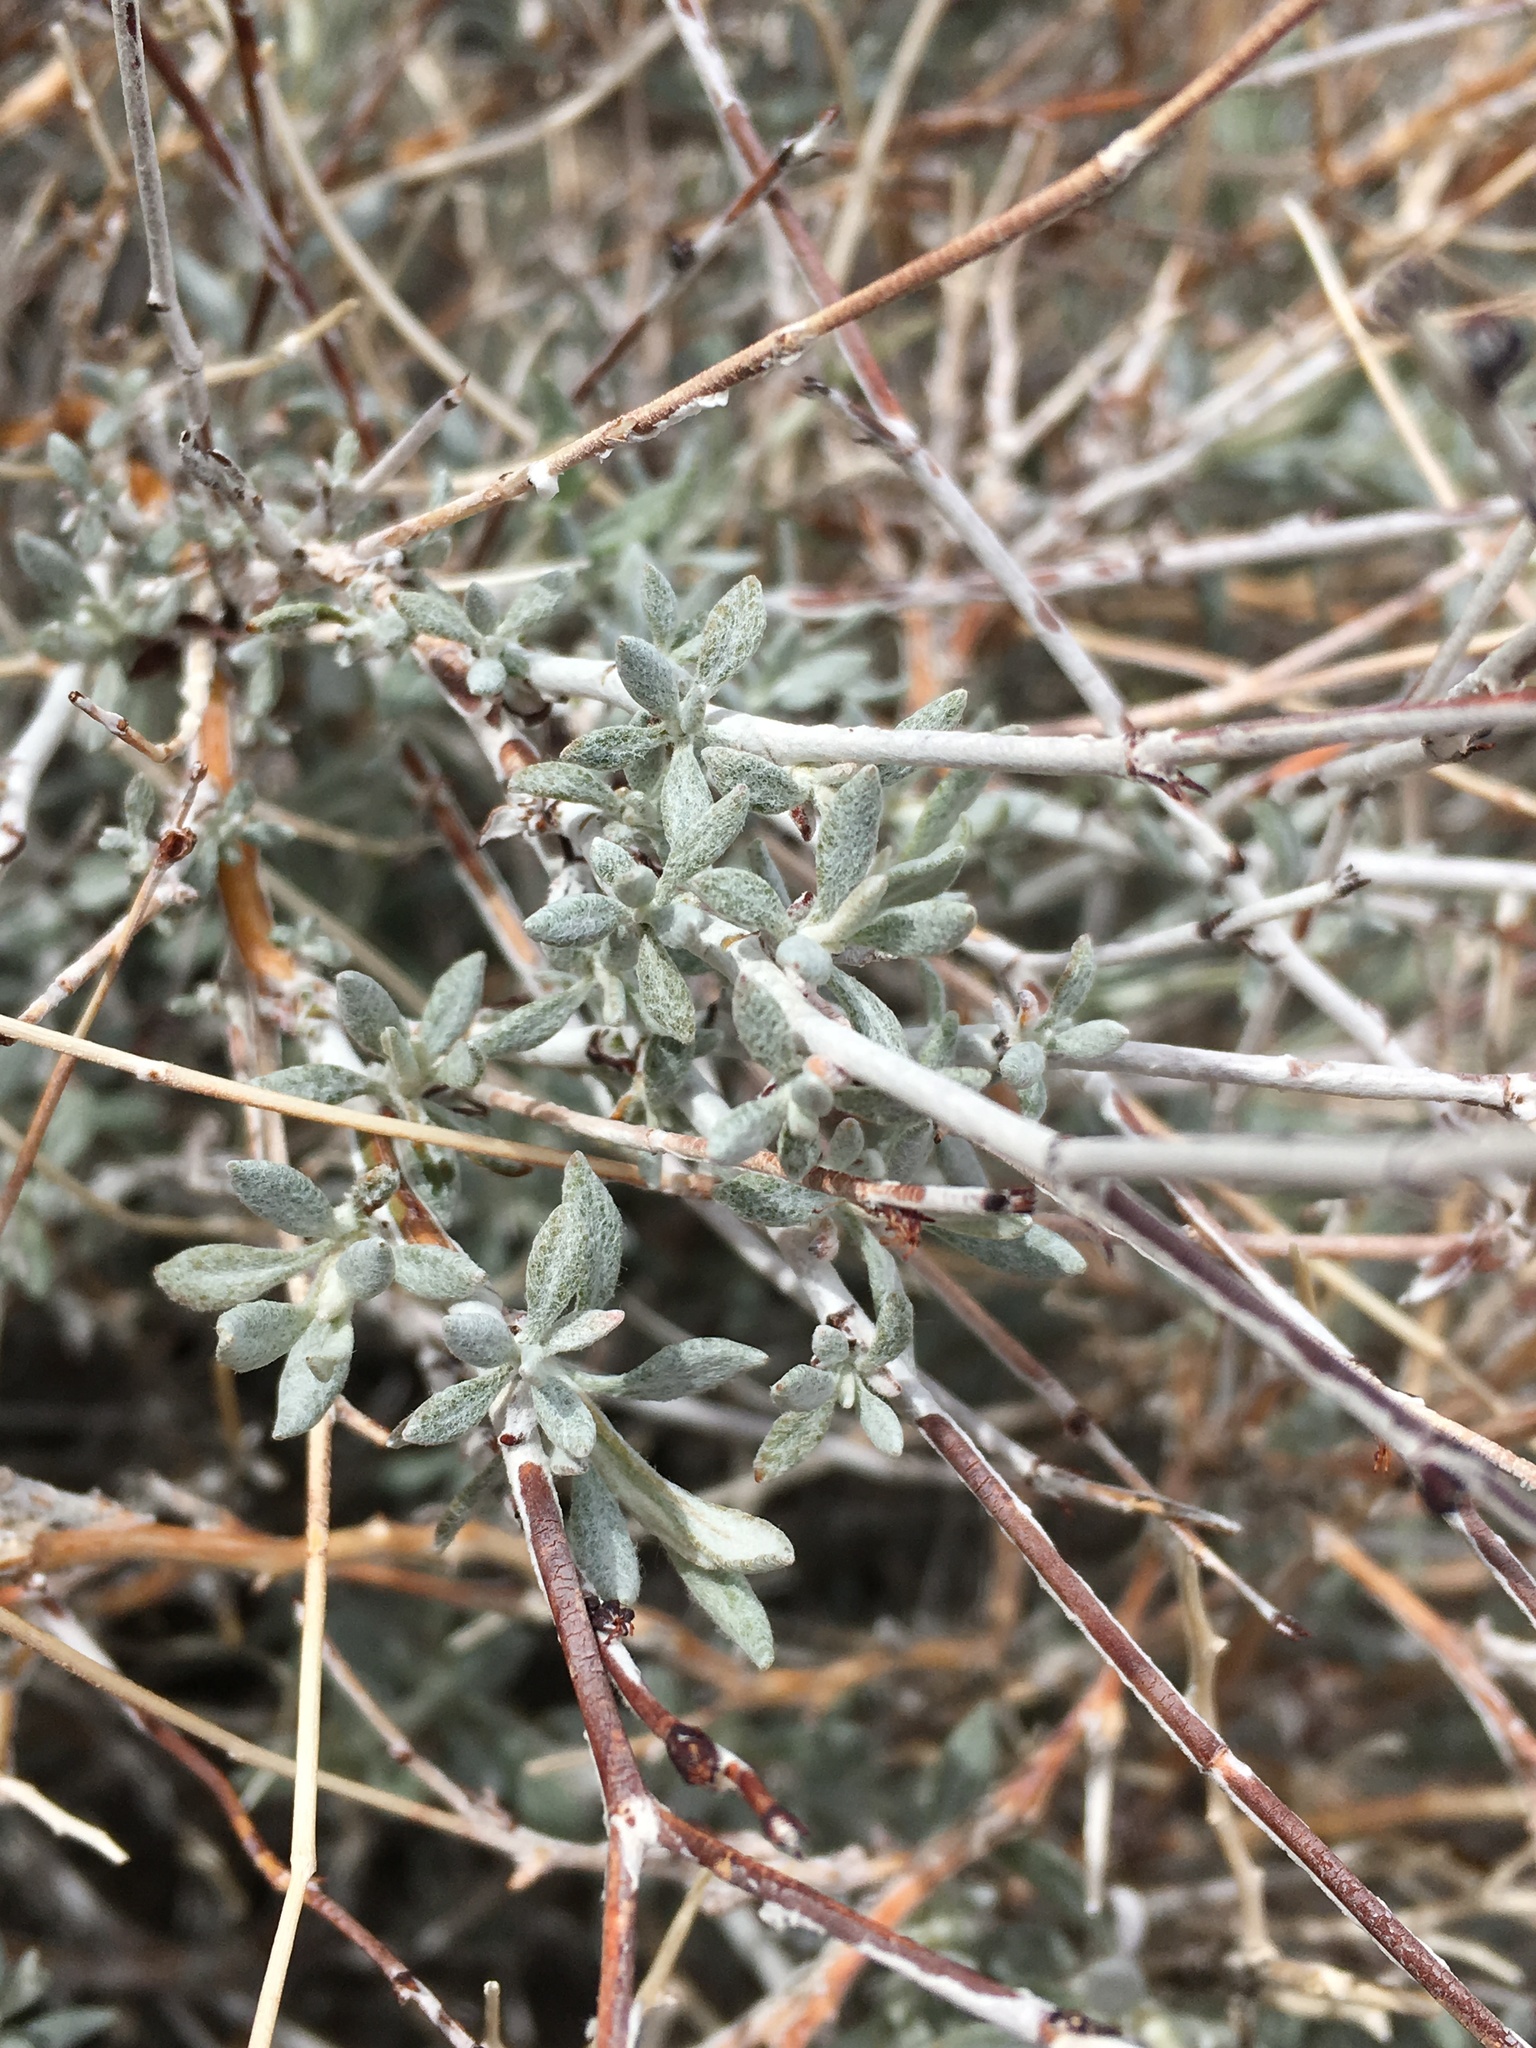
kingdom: Plantae
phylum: Tracheophyta
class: Magnoliopsida
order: Caryophyllales
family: Polygonaceae
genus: Eriogonum
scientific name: Eriogonum wrightii
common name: Bastard-sage
